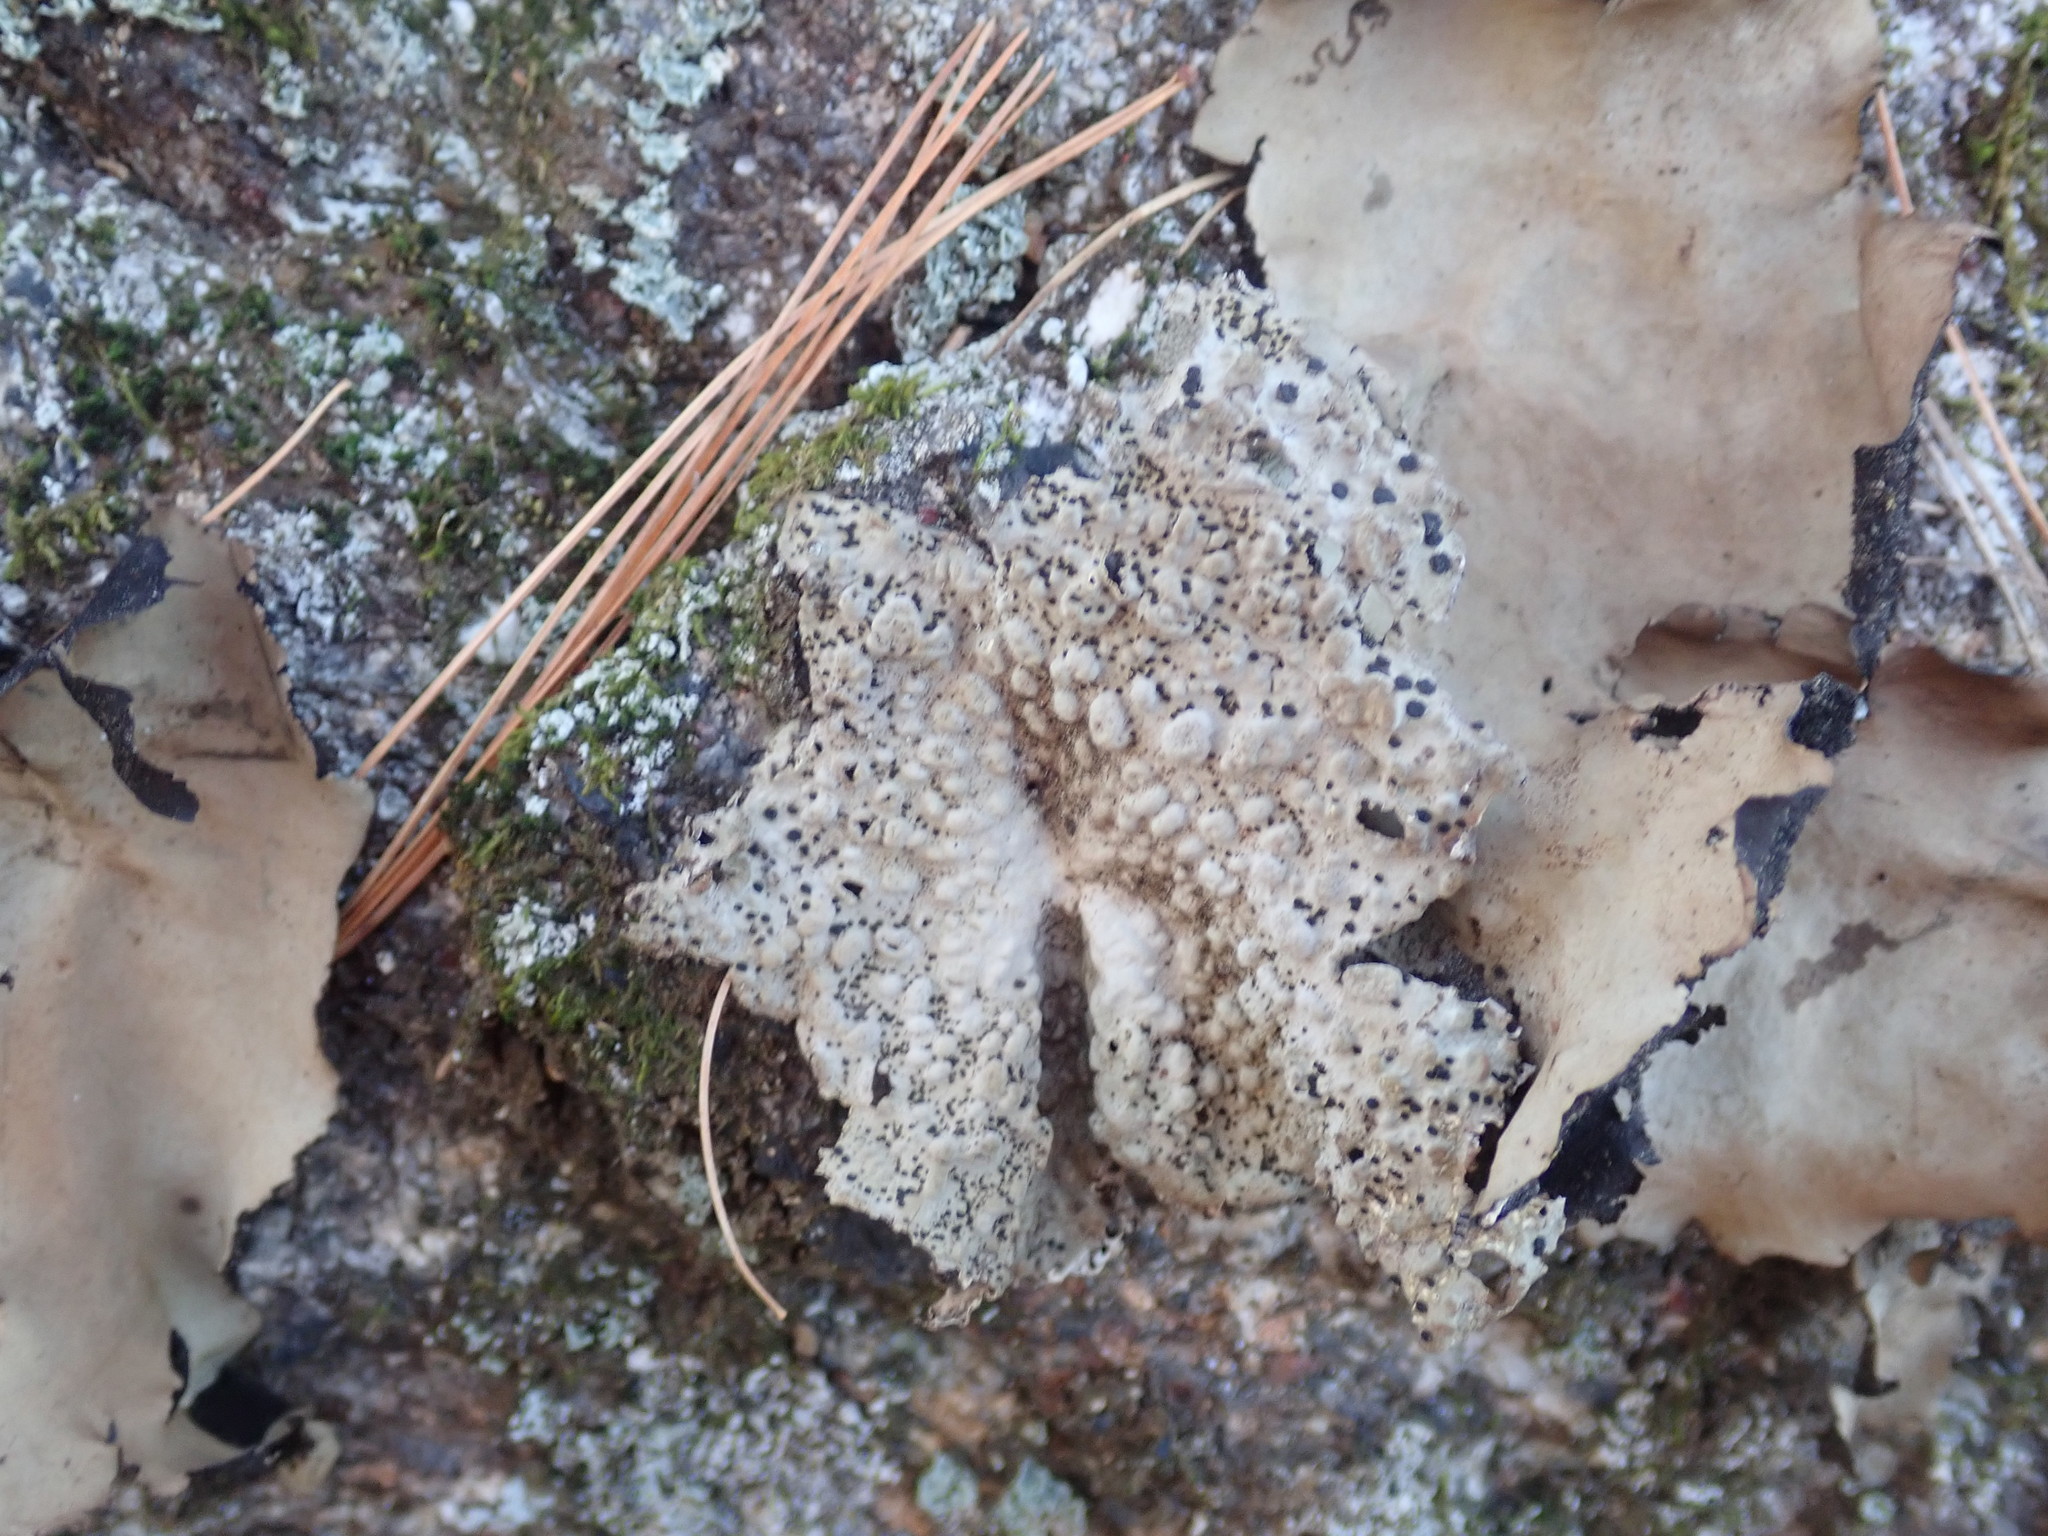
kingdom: Fungi
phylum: Ascomycota
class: Lecanoromycetes
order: Umbilicariales
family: Umbilicariaceae
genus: Lasallia
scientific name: Lasallia papulosa
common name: Common toadskin lichen
